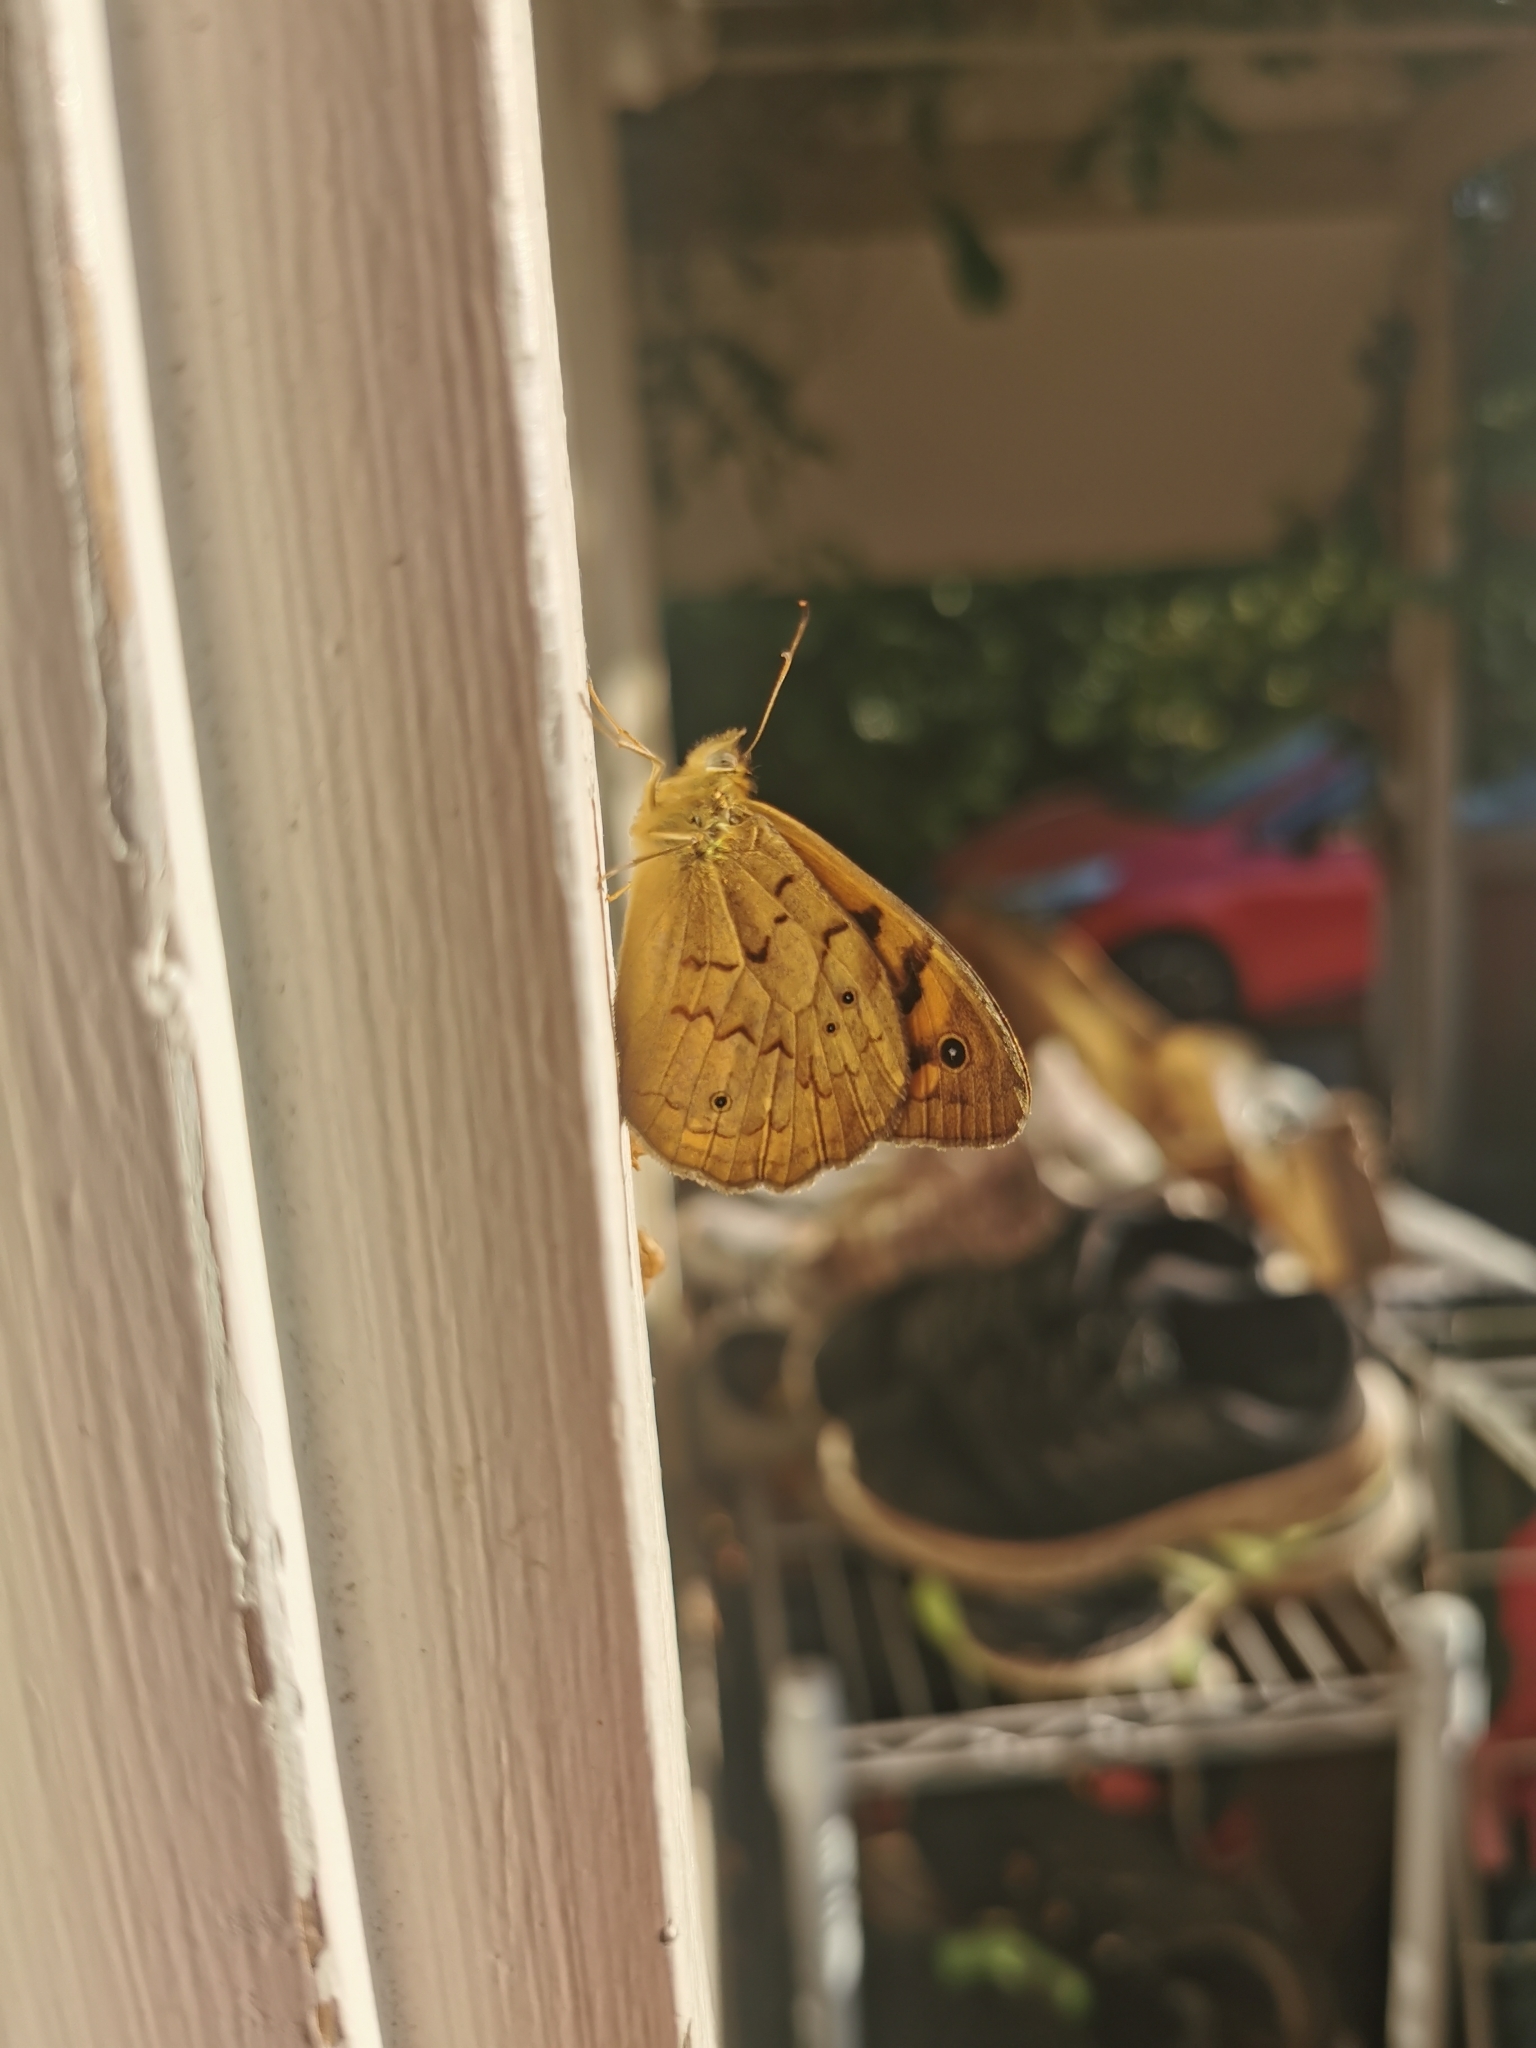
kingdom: Animalia
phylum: Arthropoda
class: Insecta
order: Lepidoptera
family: Nymphalidae
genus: Heteronympha
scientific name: Heteronympha merope
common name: Common brown
